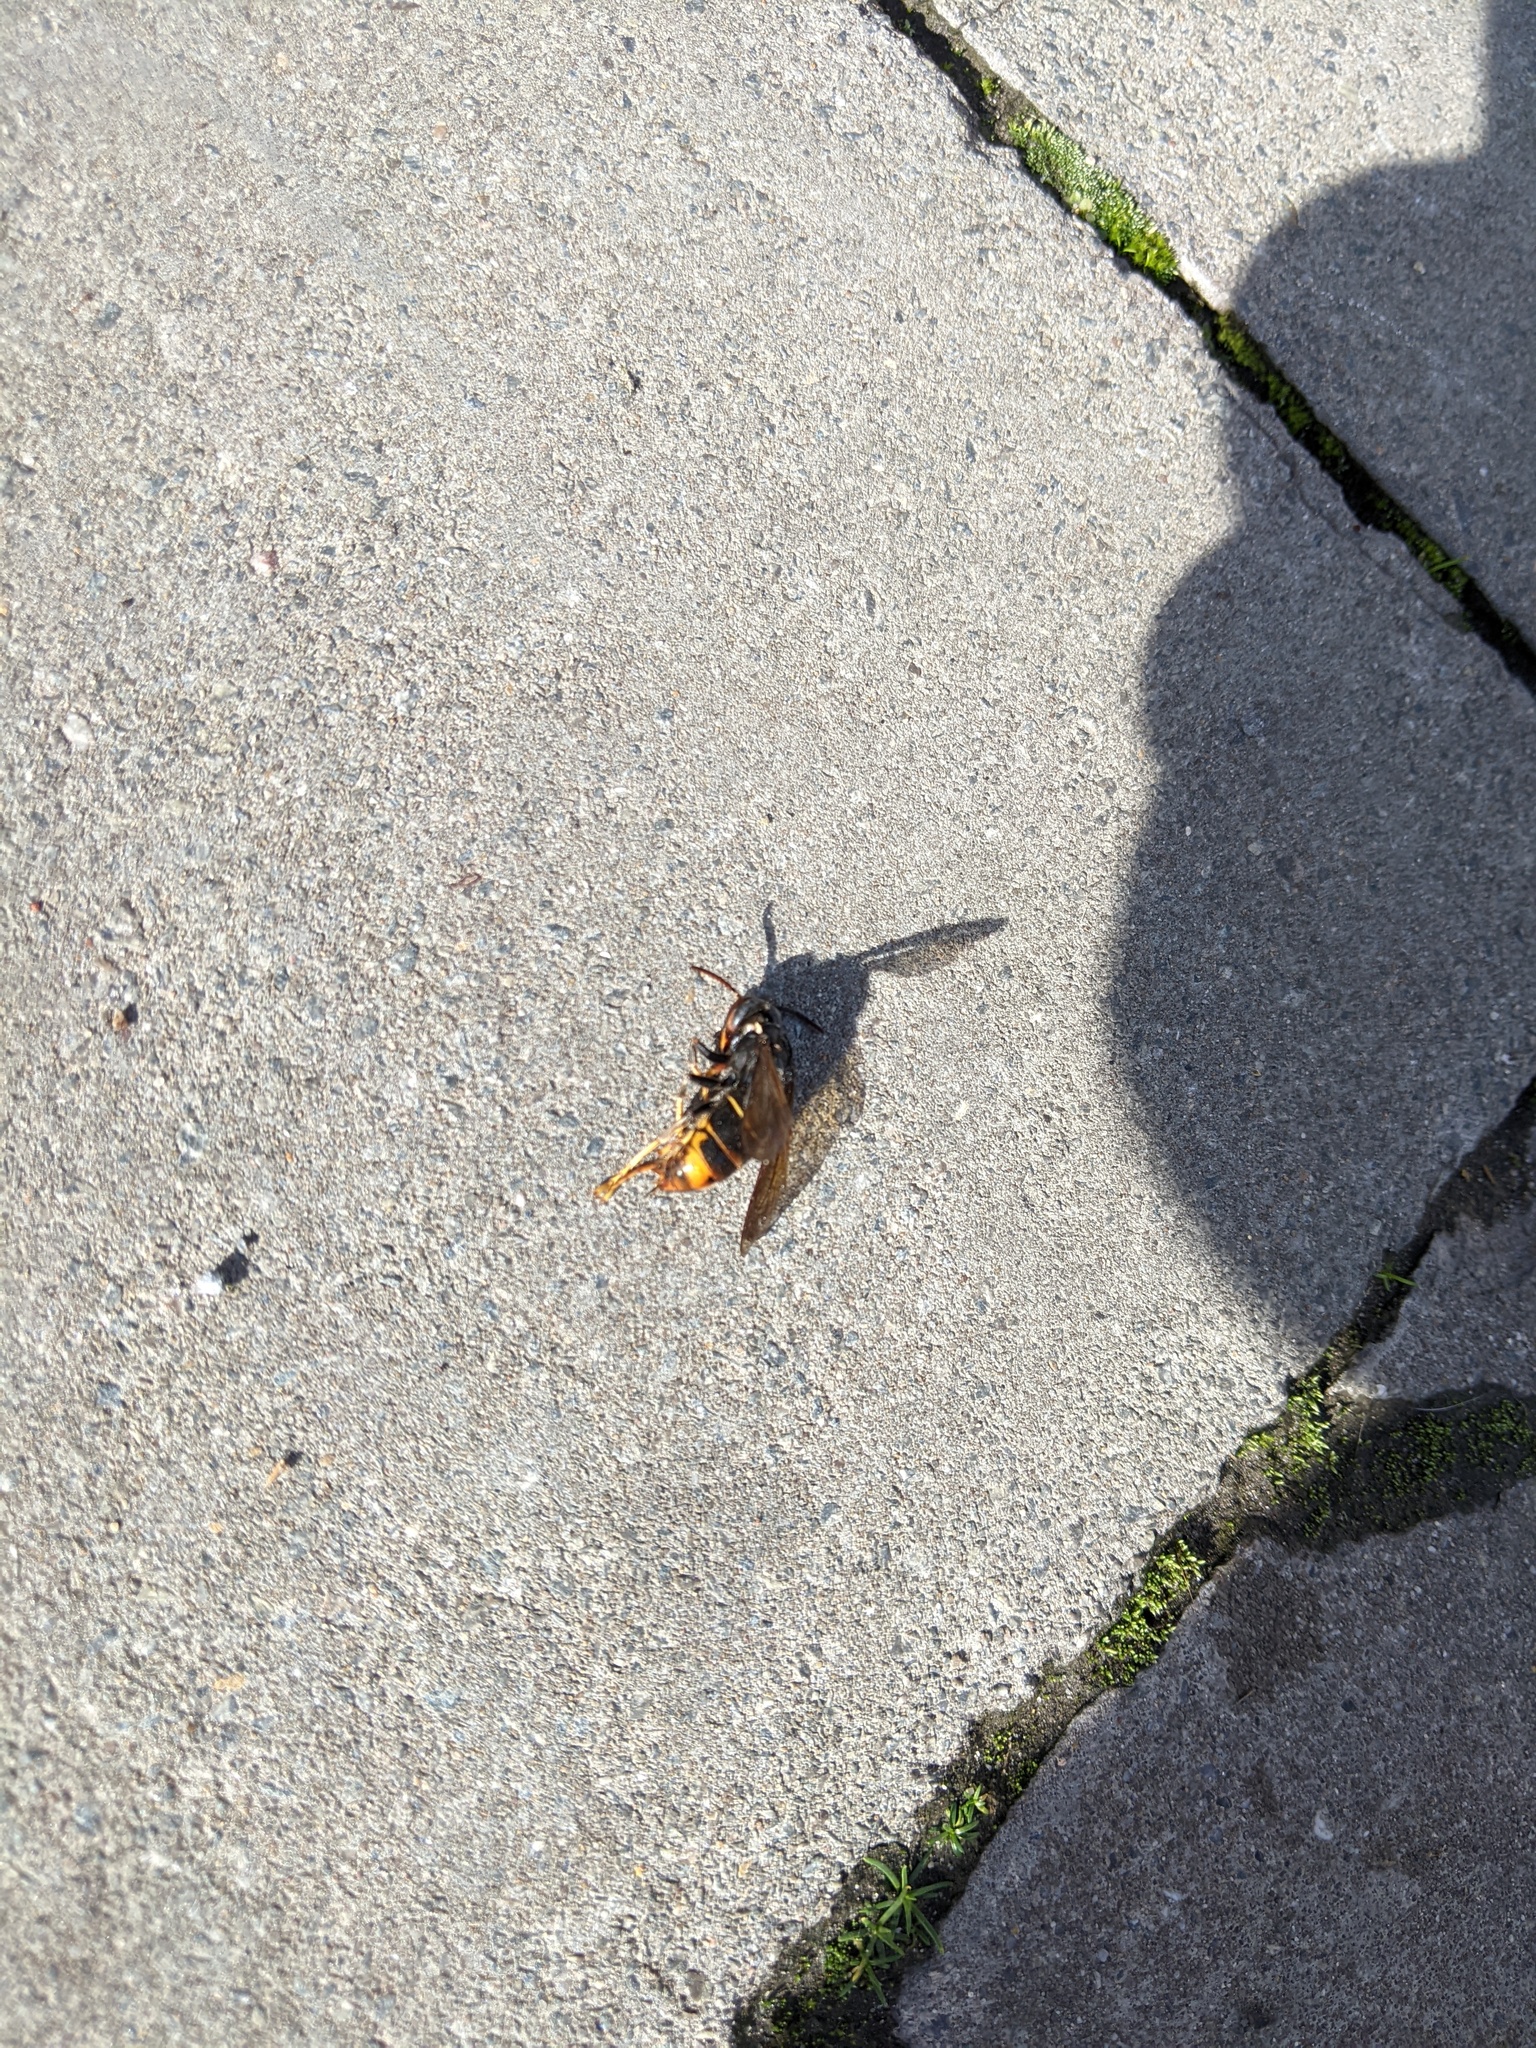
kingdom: Animalia
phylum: Arthropoda
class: Insecta
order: Hymenoptera
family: Vespidae
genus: Vespa
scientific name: Vespa velutina
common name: Asian hornet
